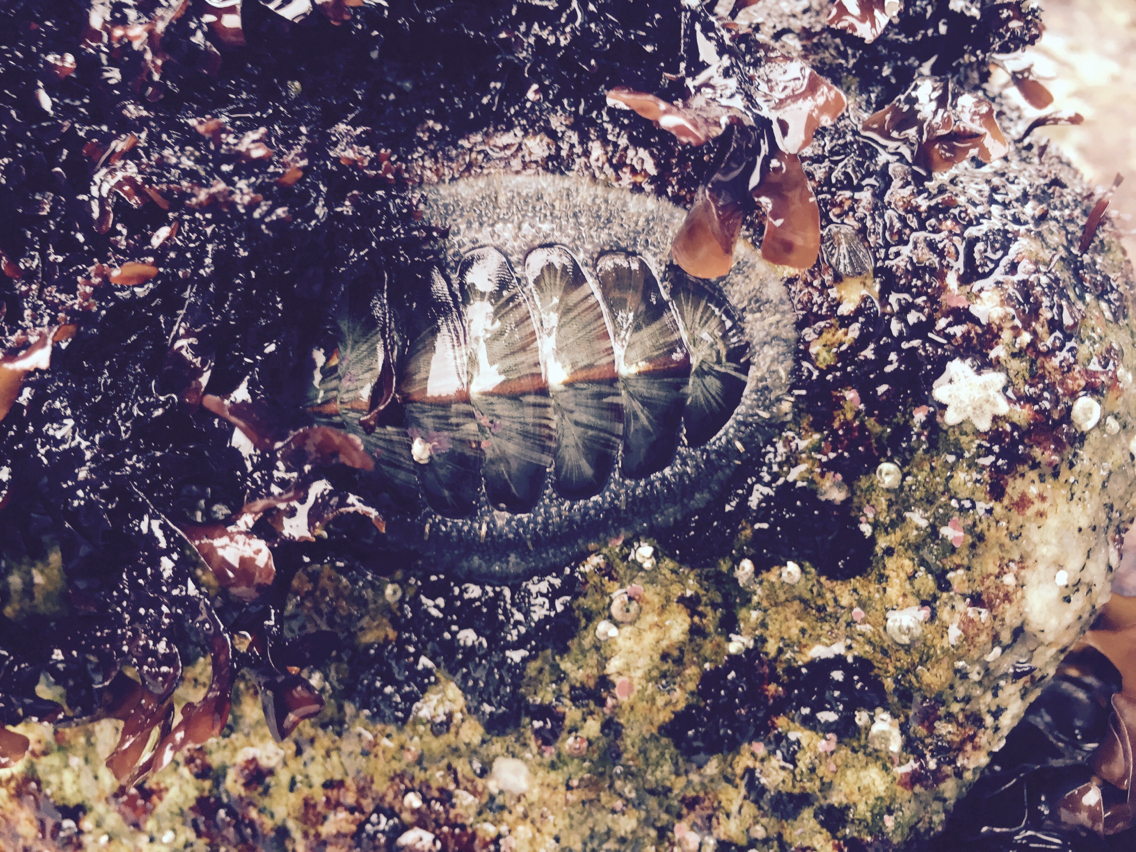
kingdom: Animalia
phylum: Mollusca
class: Polyplacophora
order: Chitonida
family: Mopaliidae
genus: Mopalia
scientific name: Mopalia lignosa
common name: Woody chiton
